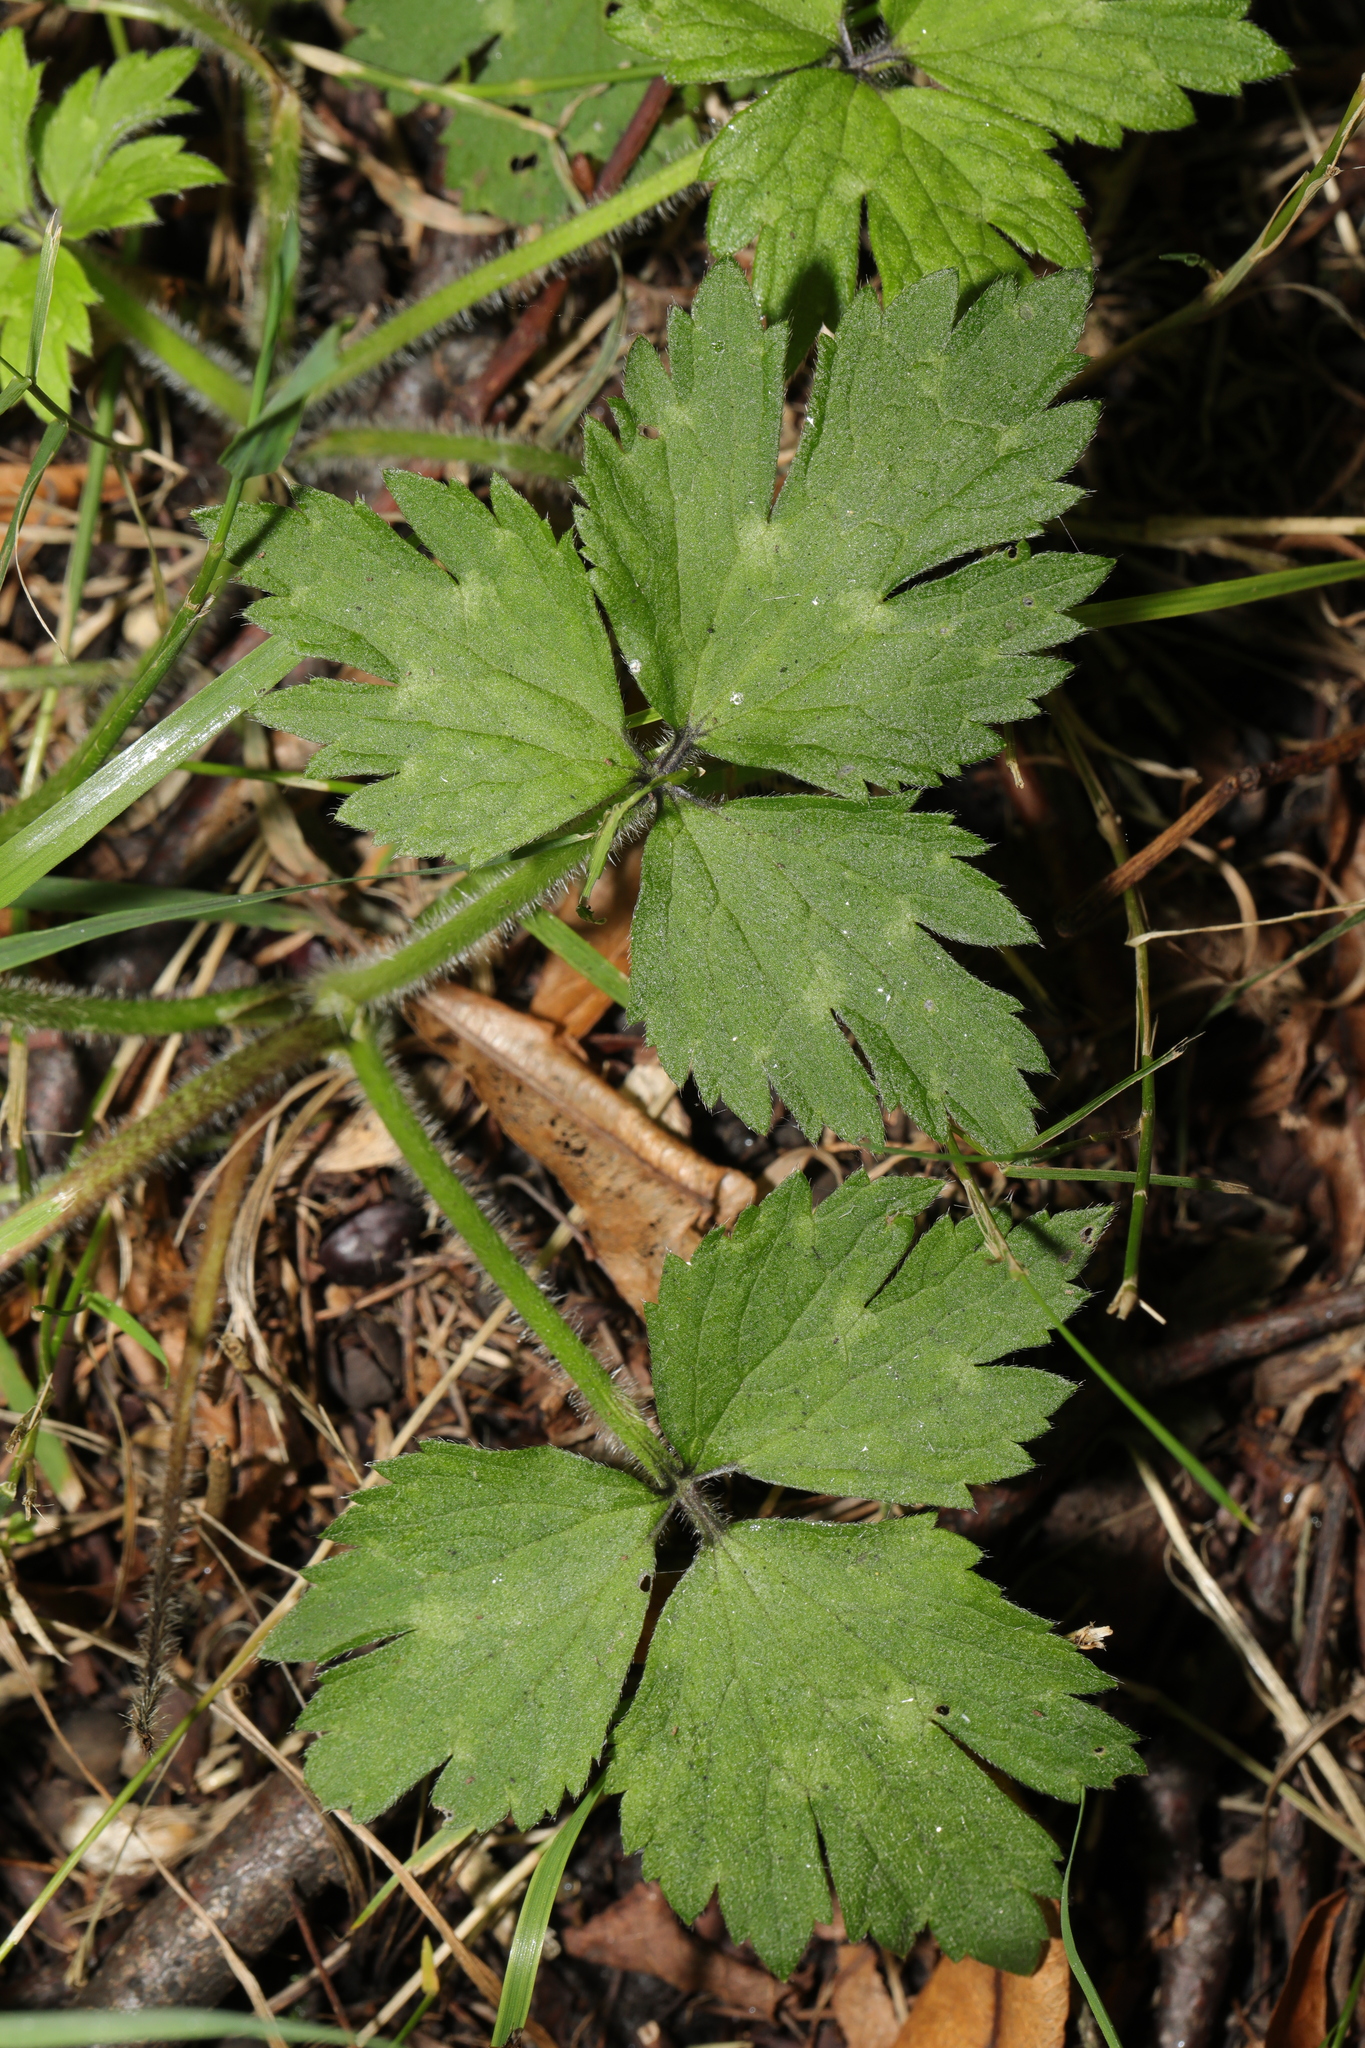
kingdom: Plantae
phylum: Tracheophyta
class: Magnoliopsida
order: Ranunculales
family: Ranunculaceae
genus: Ranunculus
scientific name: Ranunculus repens
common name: Creeping buttercup
